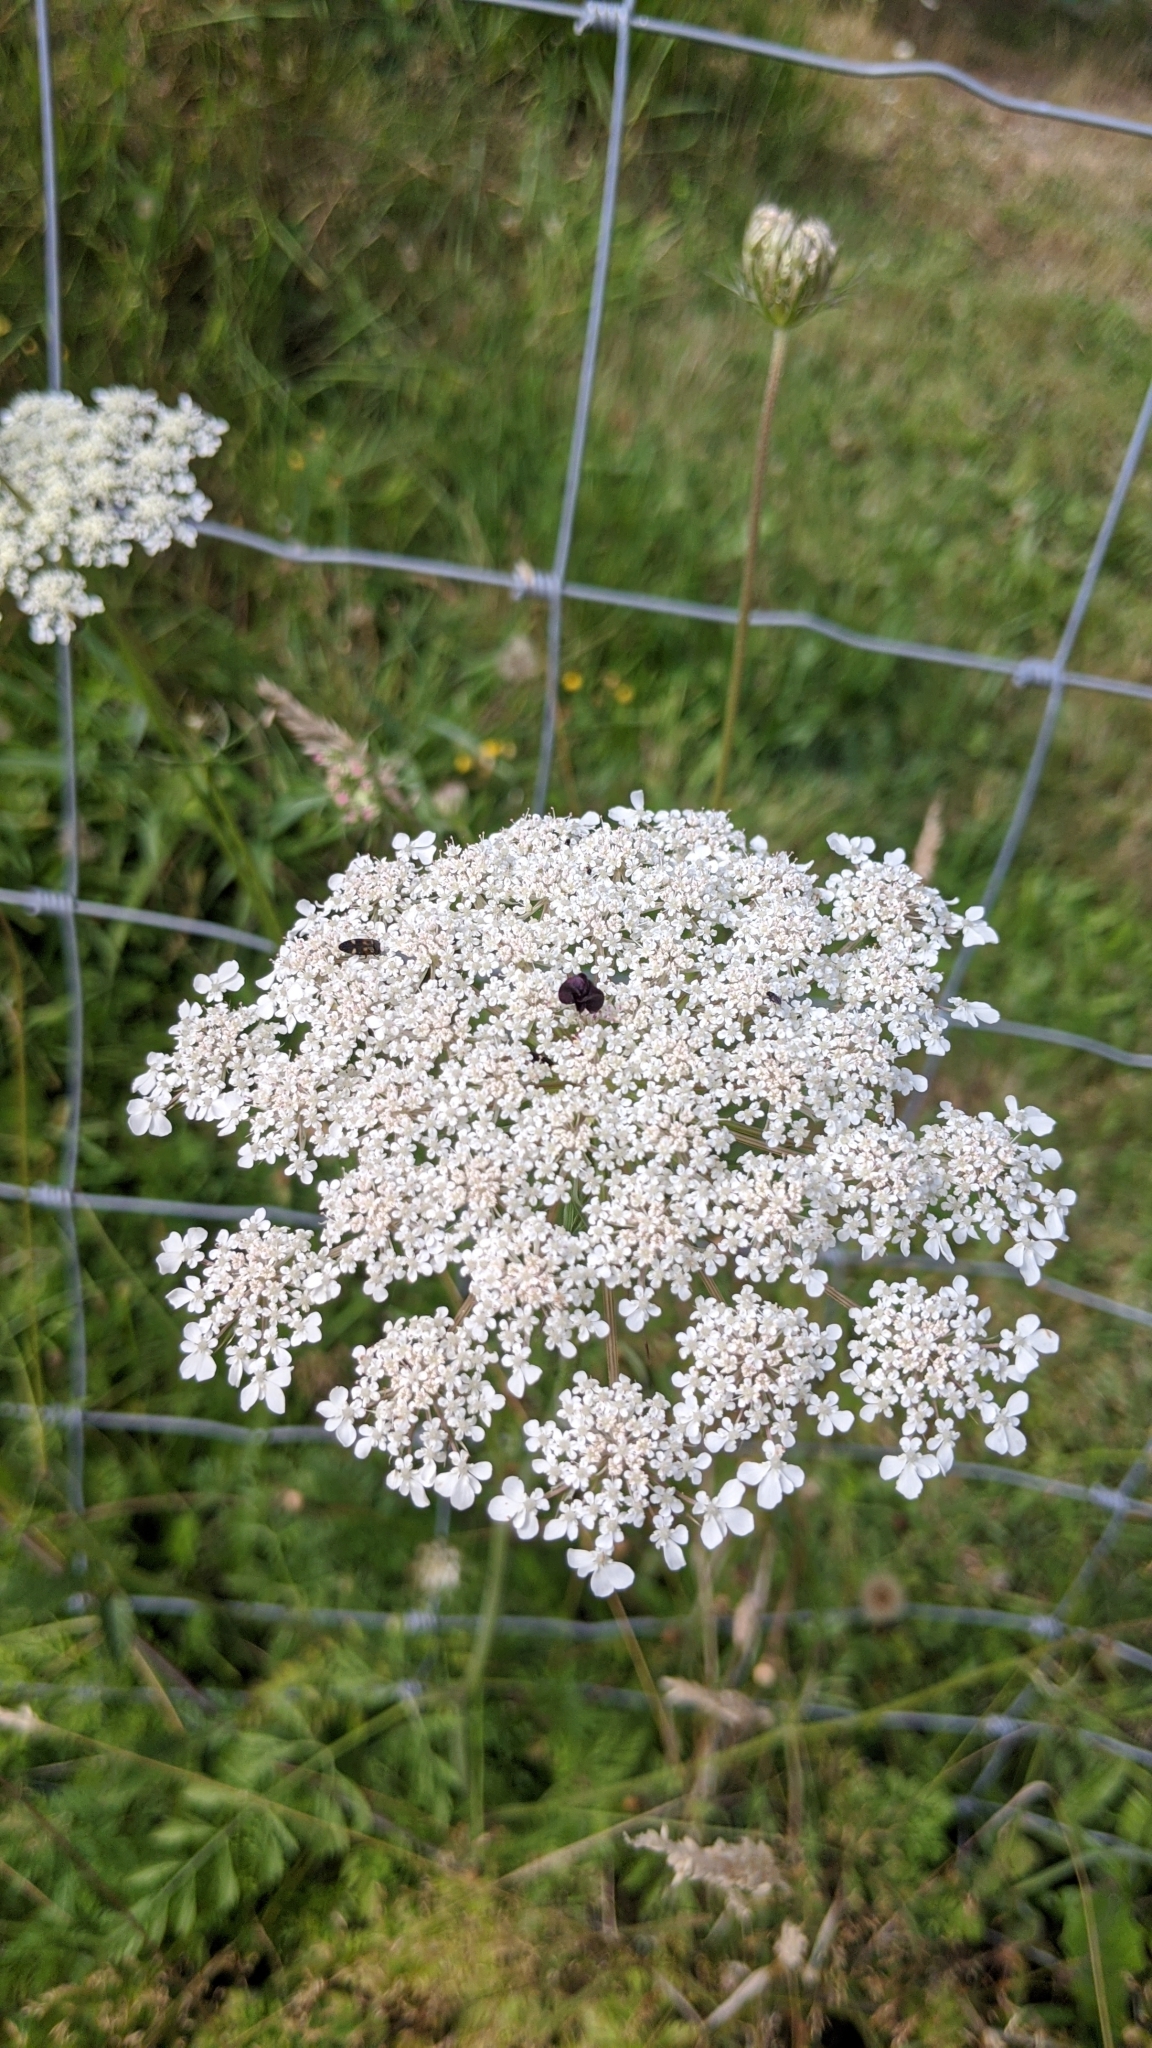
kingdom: Plantae
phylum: Tracheophyta
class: Magnoliopsida
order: Apiales
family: Apiaceae
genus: Daucus
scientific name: Daucus carota
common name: Wild carrot
